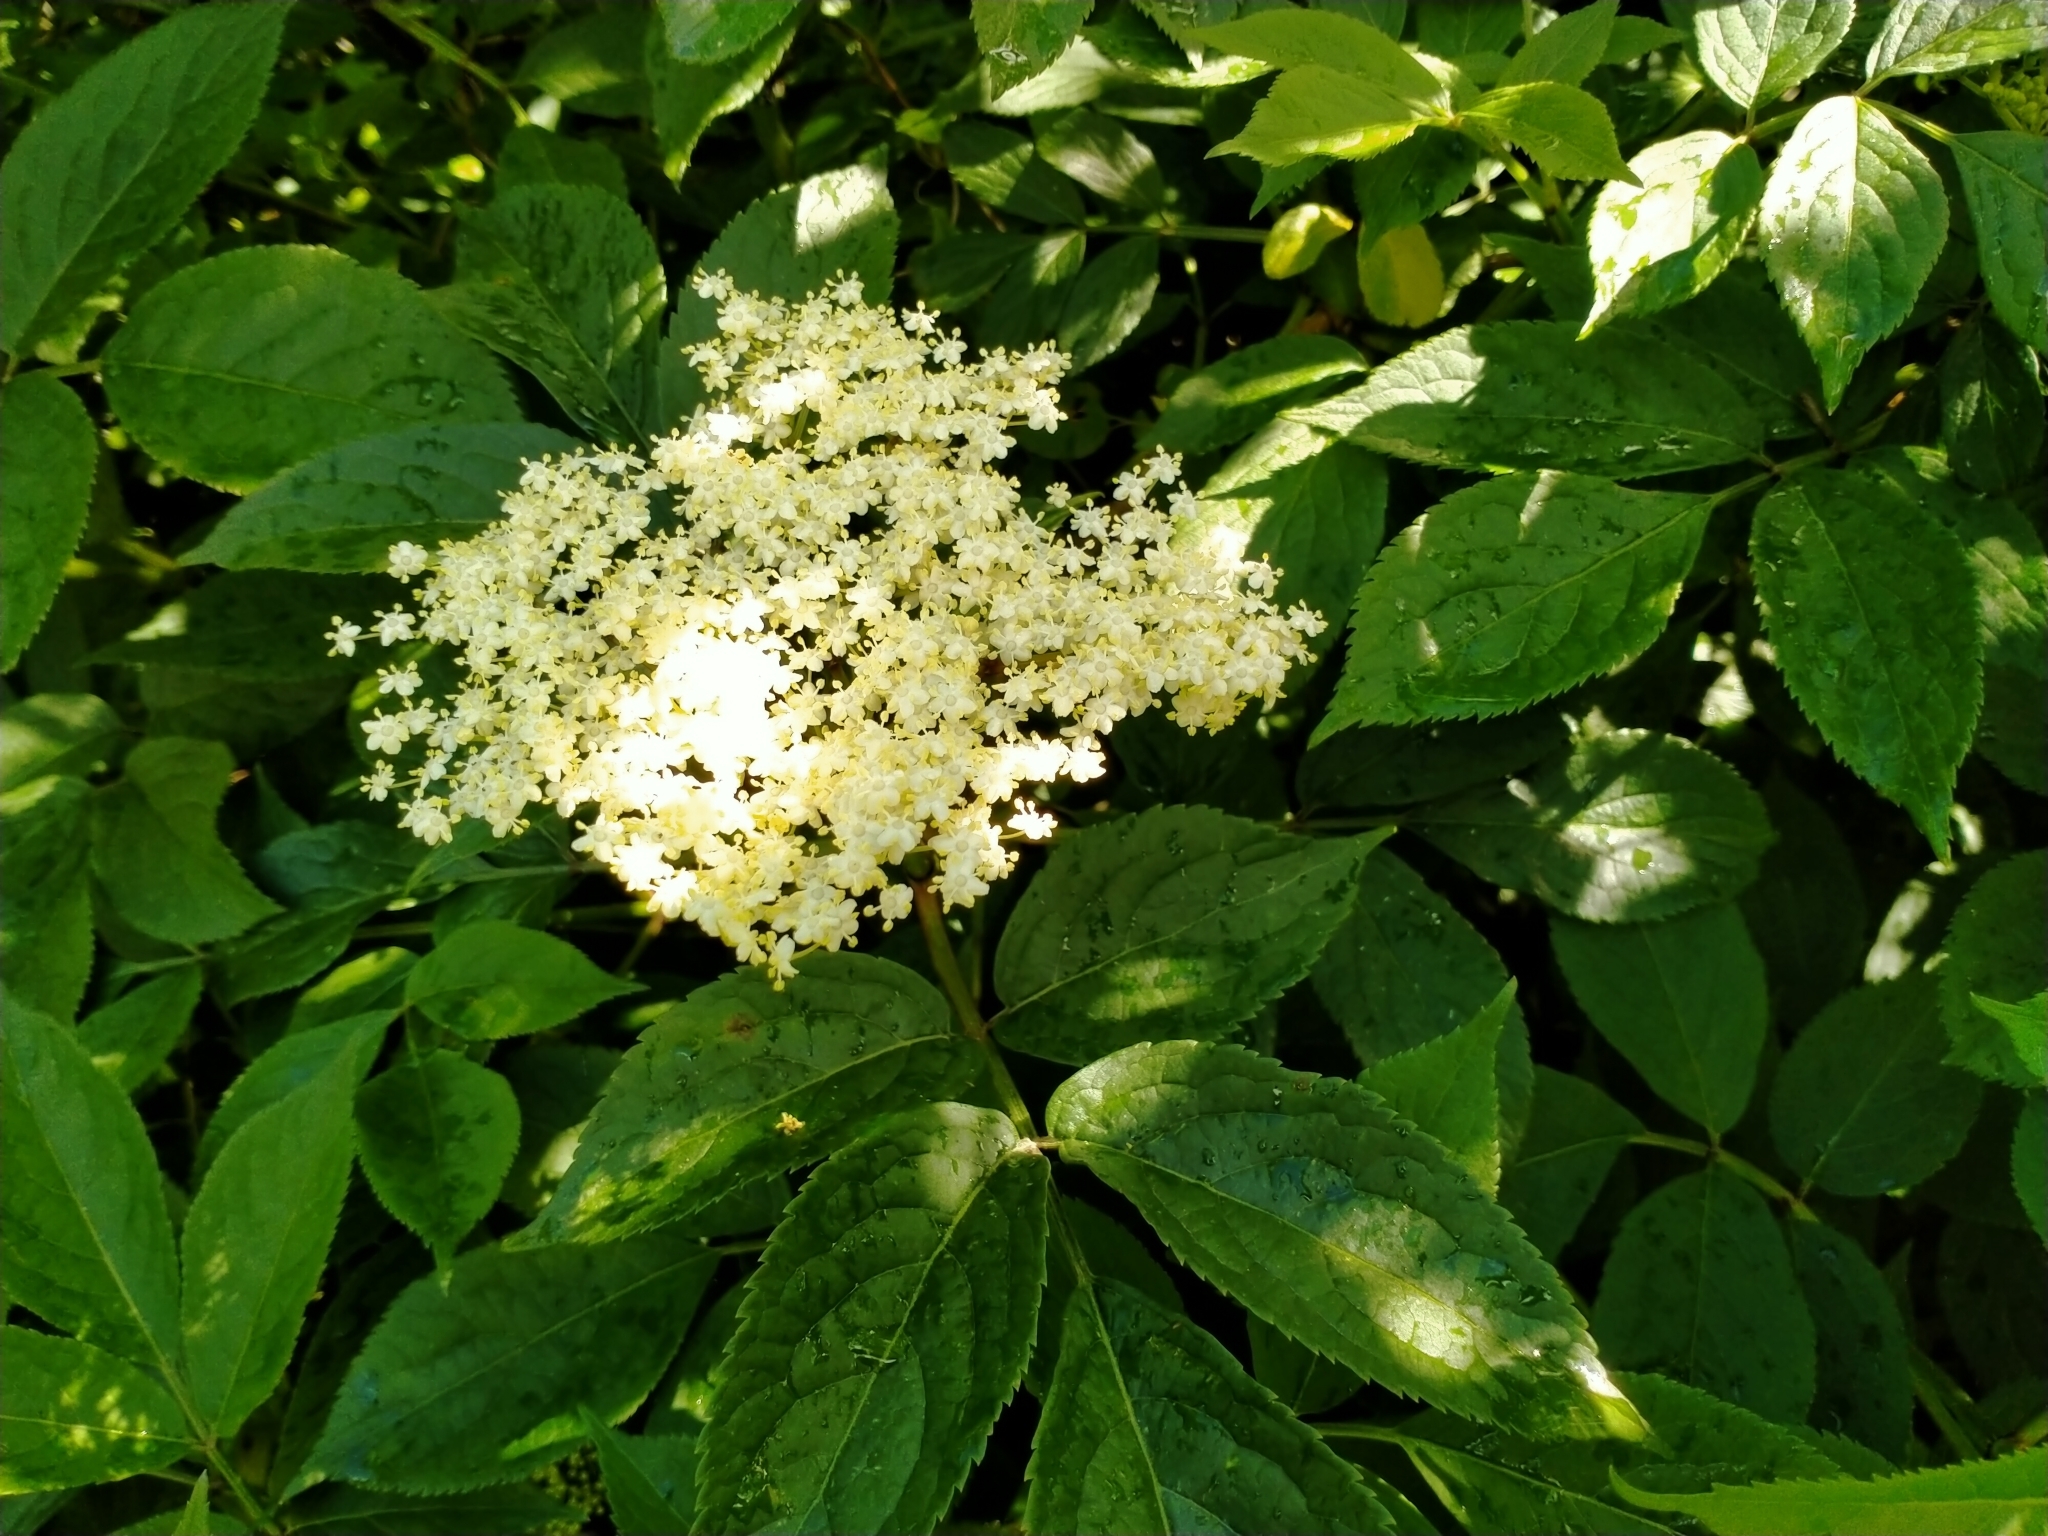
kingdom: Plantae
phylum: Tracheophyta
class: Magnoliopsida
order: Dipsacales
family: Viburnaceae
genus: Sambucus
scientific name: Sambucus nigra
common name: Elder
